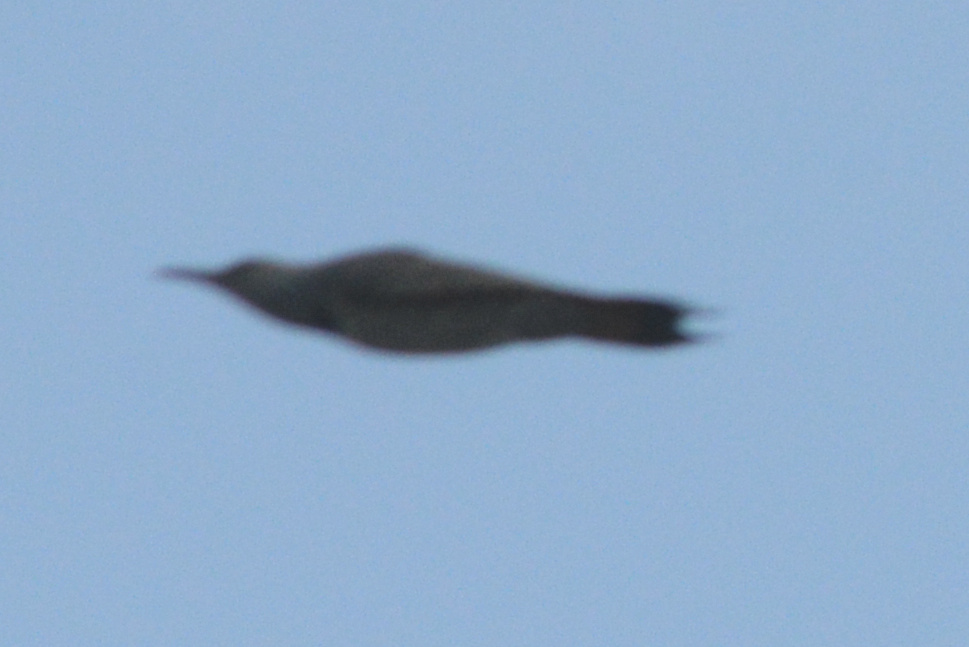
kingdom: Animalia
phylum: Chordata
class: Aves
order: Piciformes
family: Picidae
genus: Colaptes
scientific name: Colaptes auratus
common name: Northern flicker
